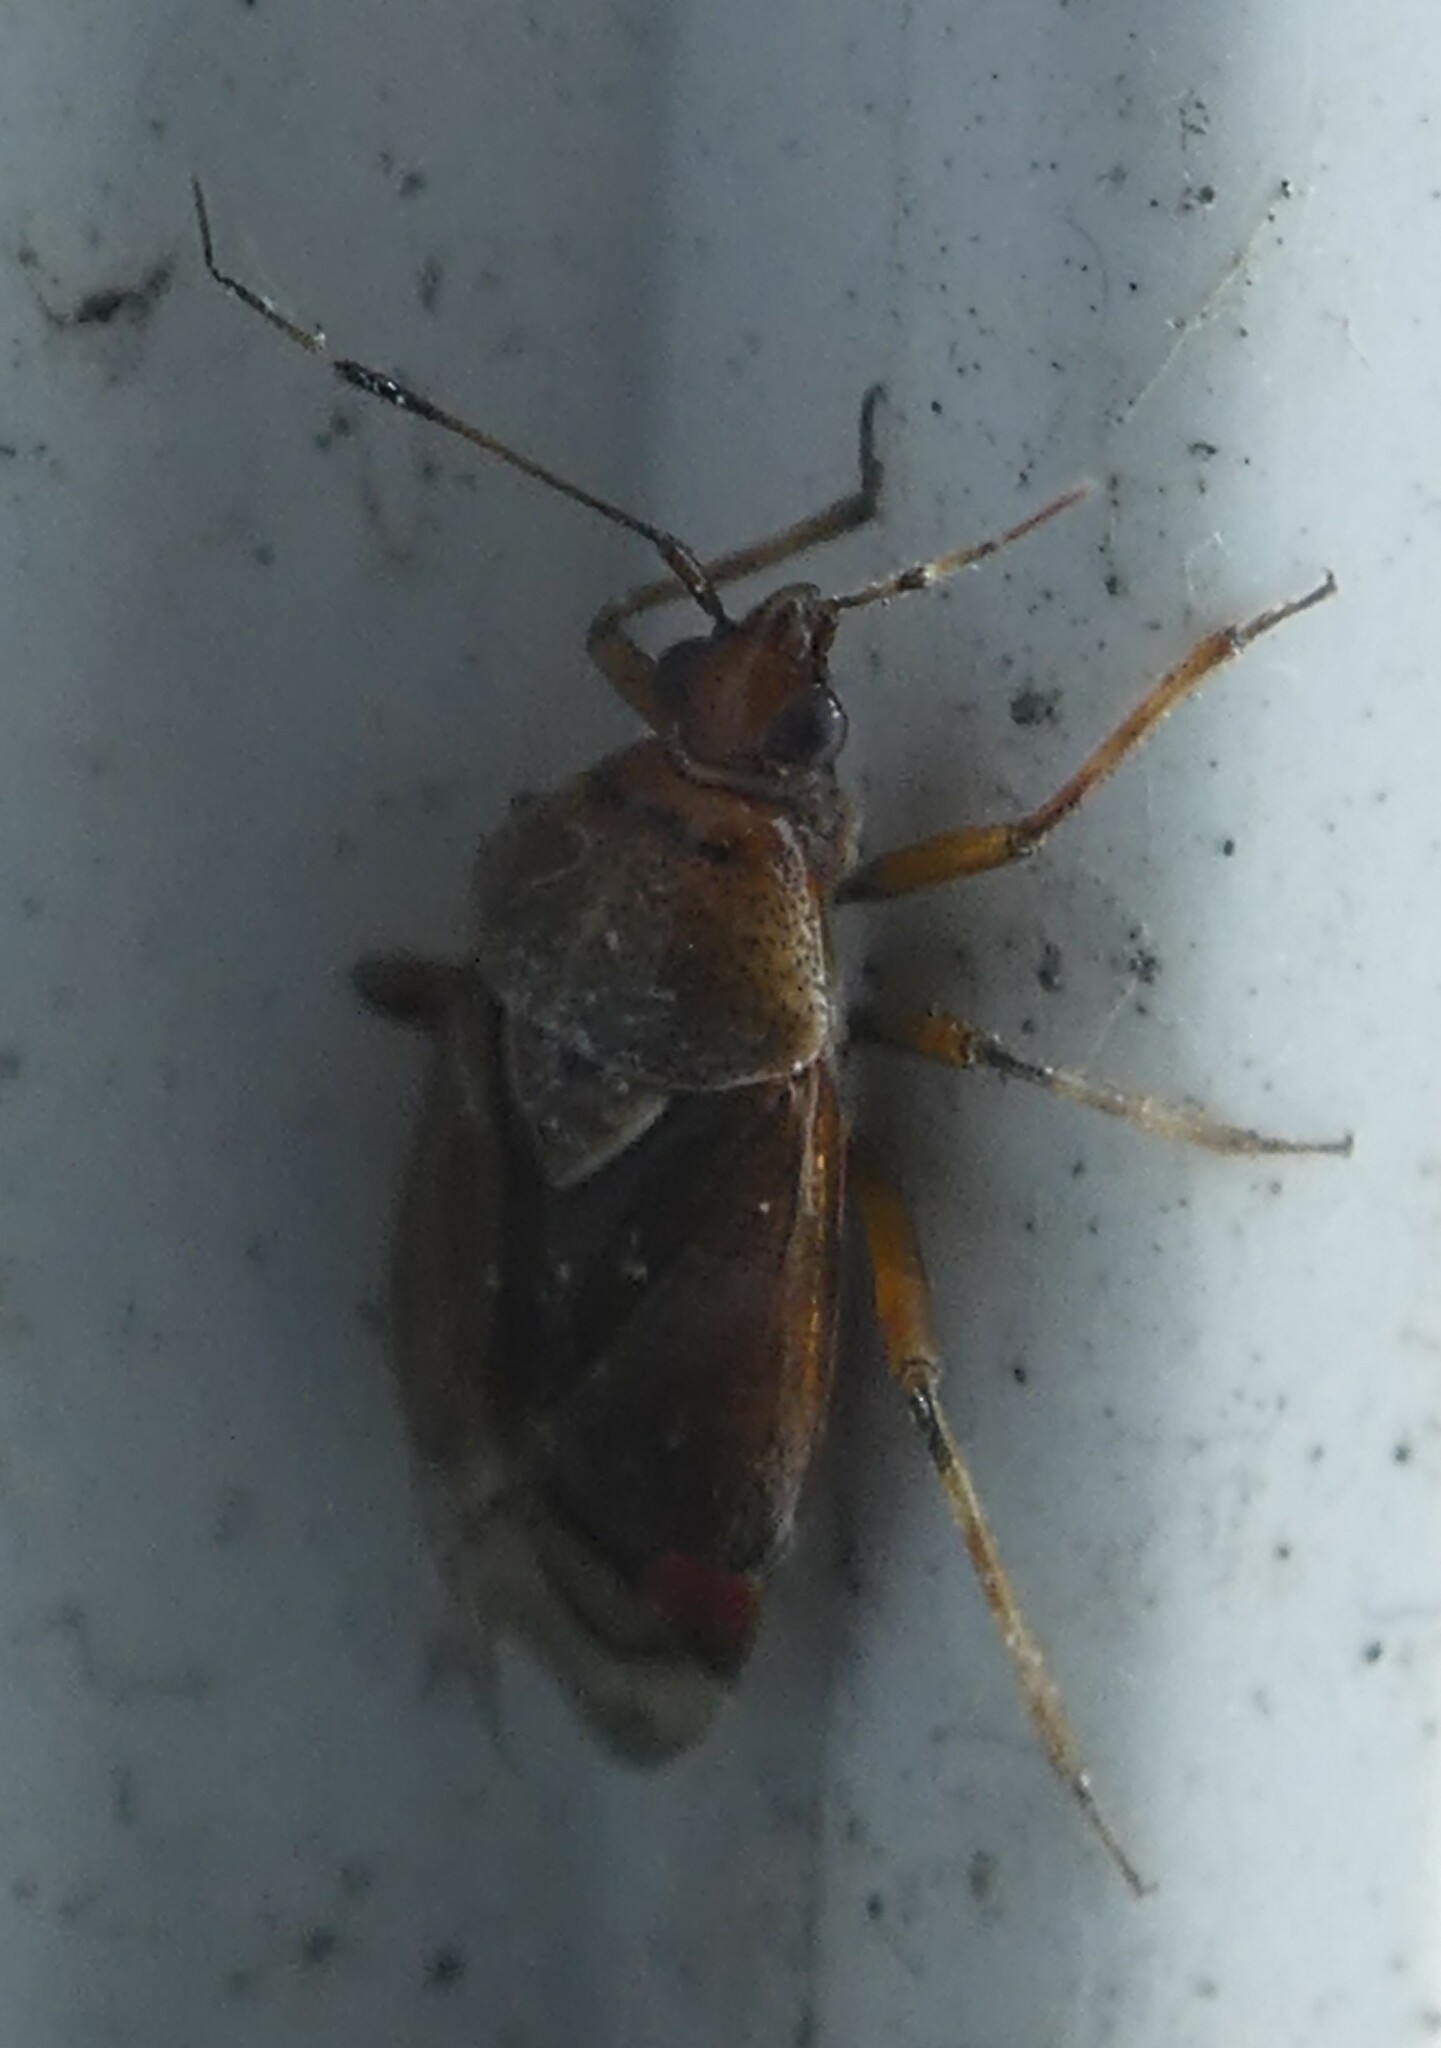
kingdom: Animalia
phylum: Arthropoda
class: Insecta
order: Hemiptera
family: Miridae
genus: Deraeocoris
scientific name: Deraeocoris flavilinea
